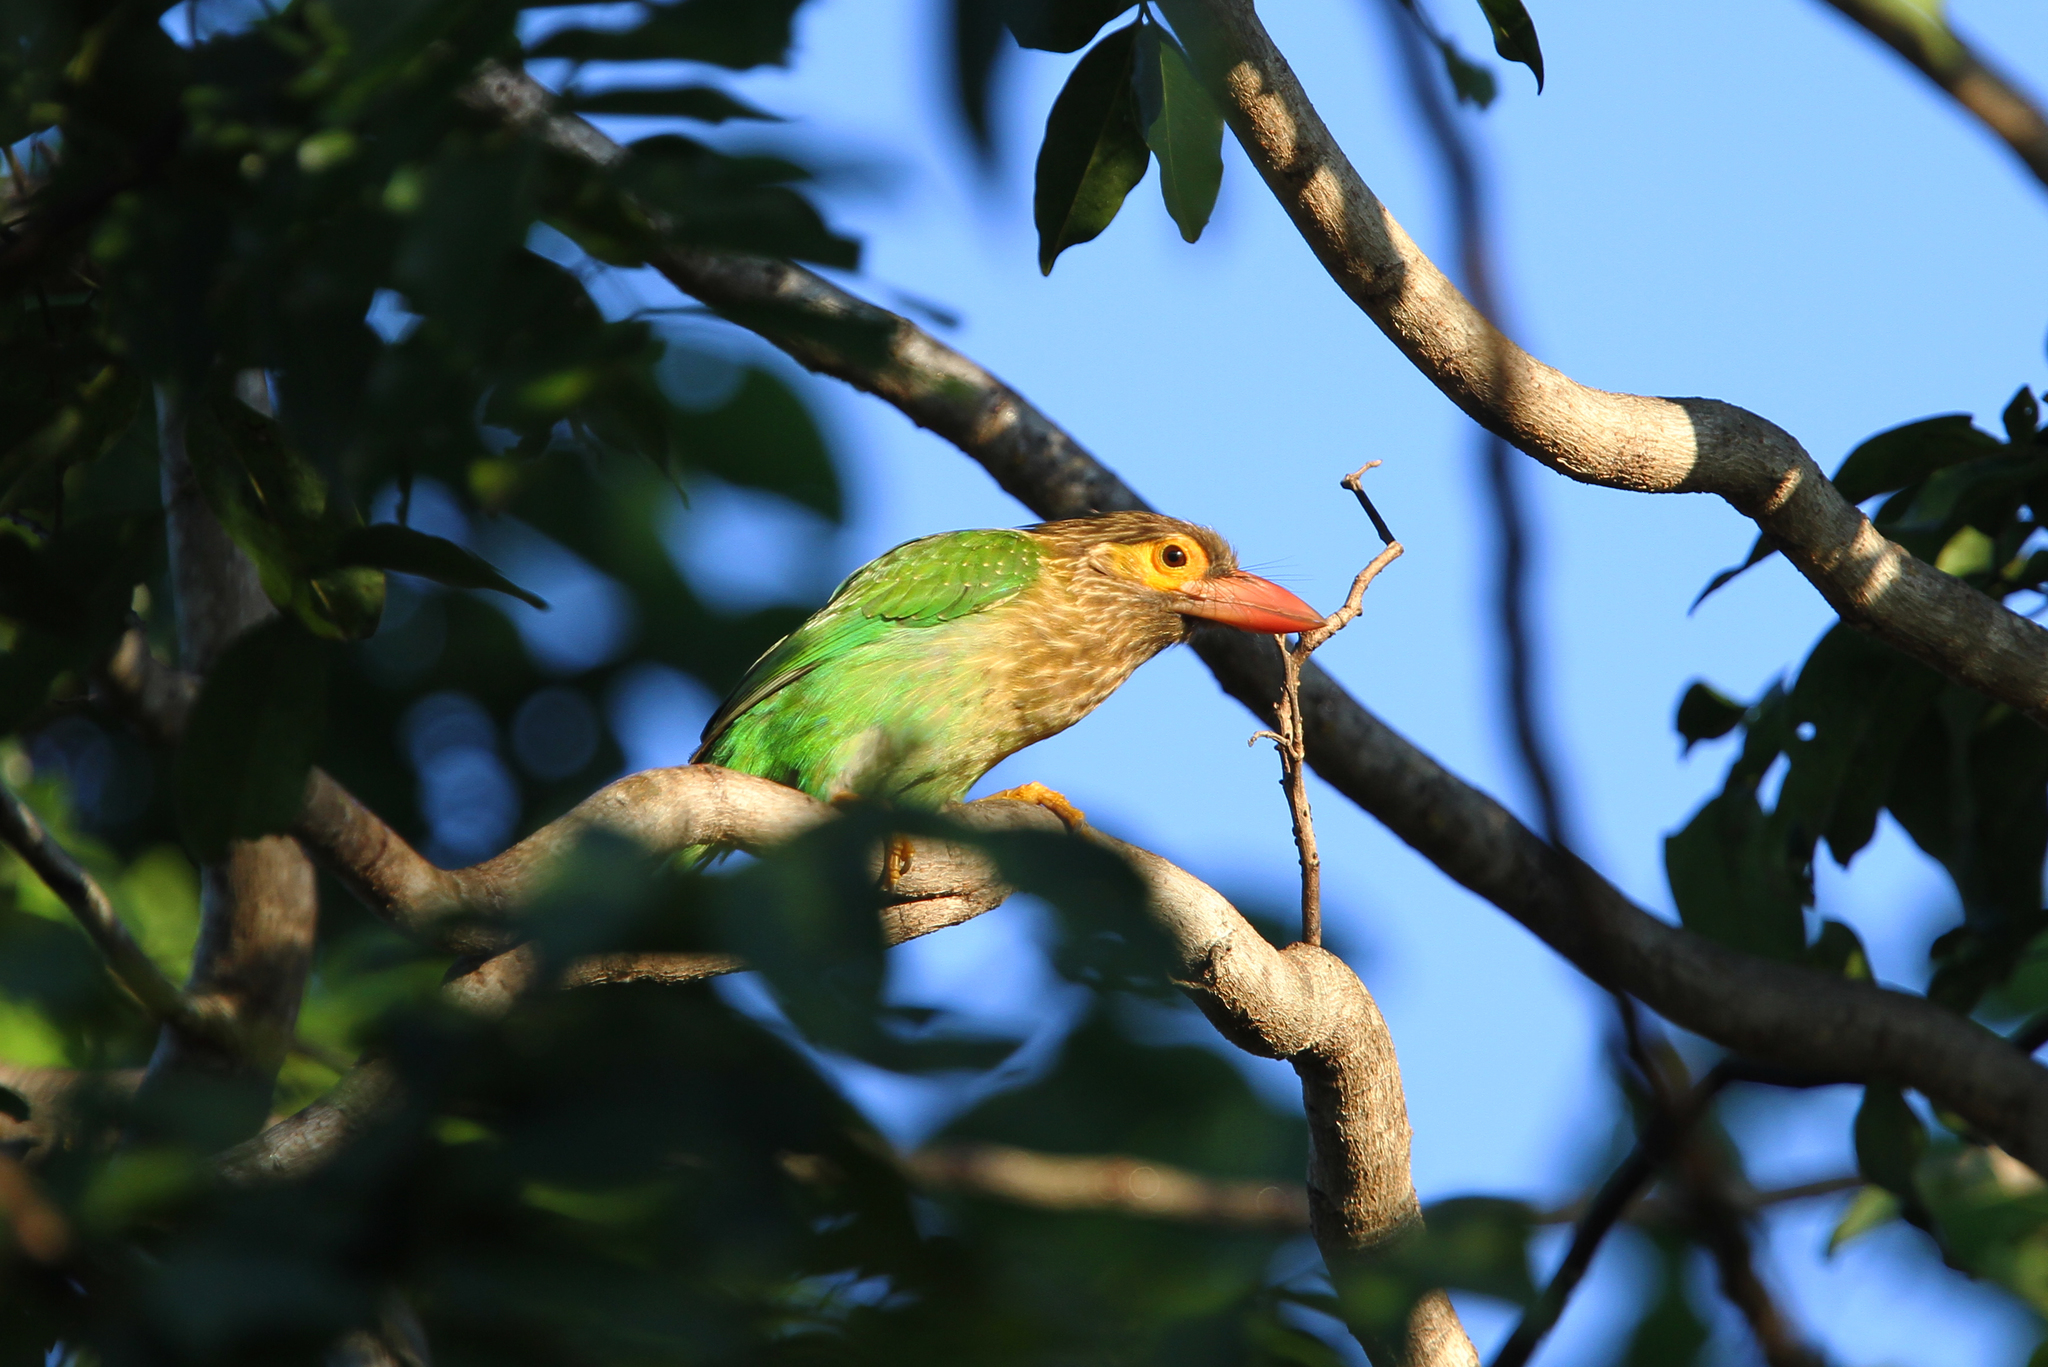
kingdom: Animalia
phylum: Chordata
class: Aves
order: Piciformes
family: Megalaimidae
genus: Psilopogon
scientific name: Psilopogon zeylanicus
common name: Brown-headed barbet
